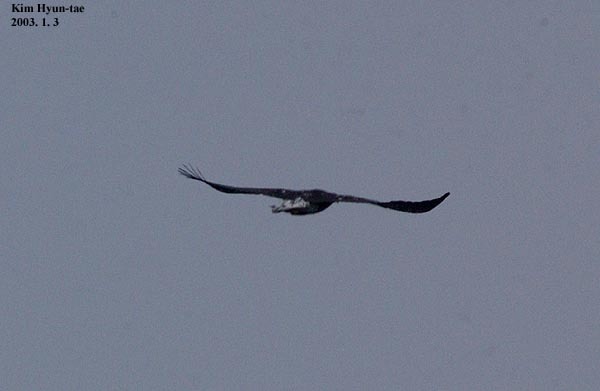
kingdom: Animalia
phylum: Chordata
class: Aves
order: Accipitriformes
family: Accipitridae
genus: Haliaeetus
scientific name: Haliaeetus pelagicus
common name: Steller's sea eagle
